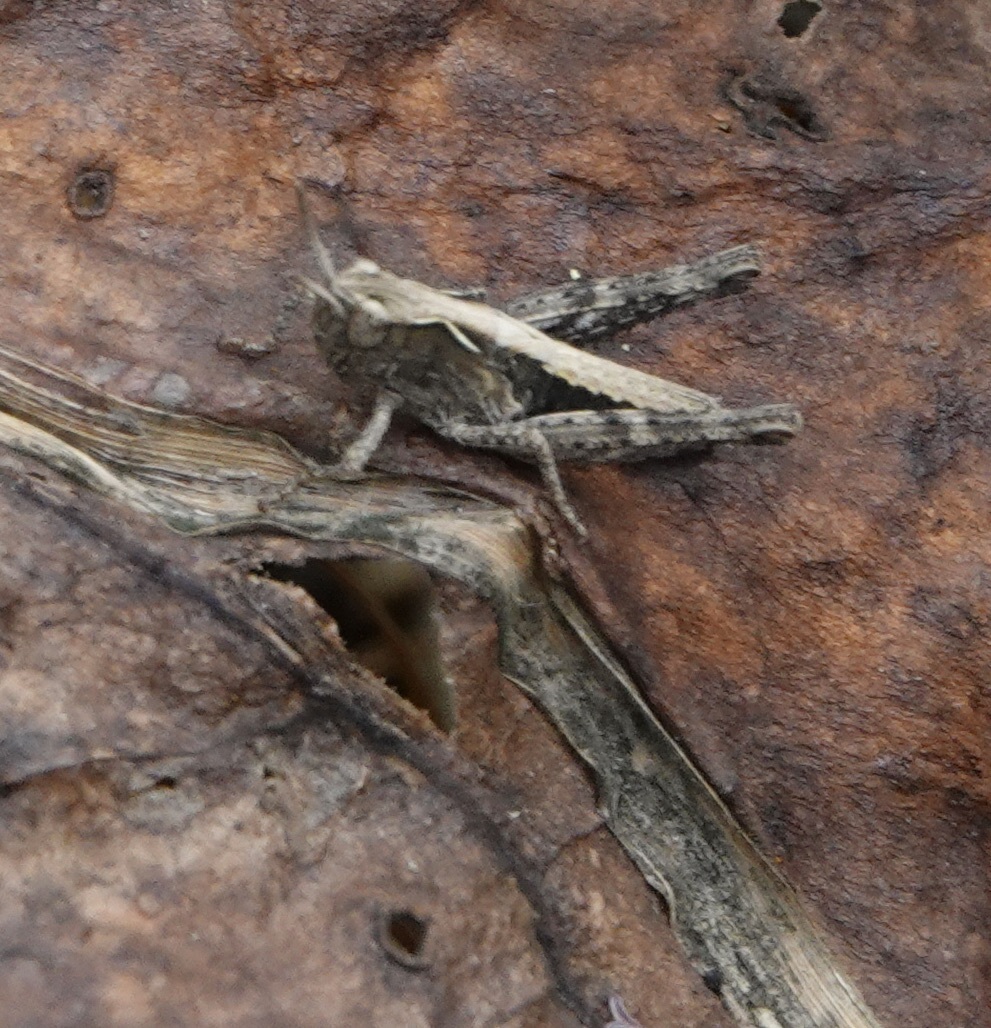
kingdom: Animalia
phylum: Arthropoda
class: Insecta
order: Orthoptera
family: Acrididae
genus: Chorthippus
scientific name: Chorthippus brunneus
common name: Field grasshopper
